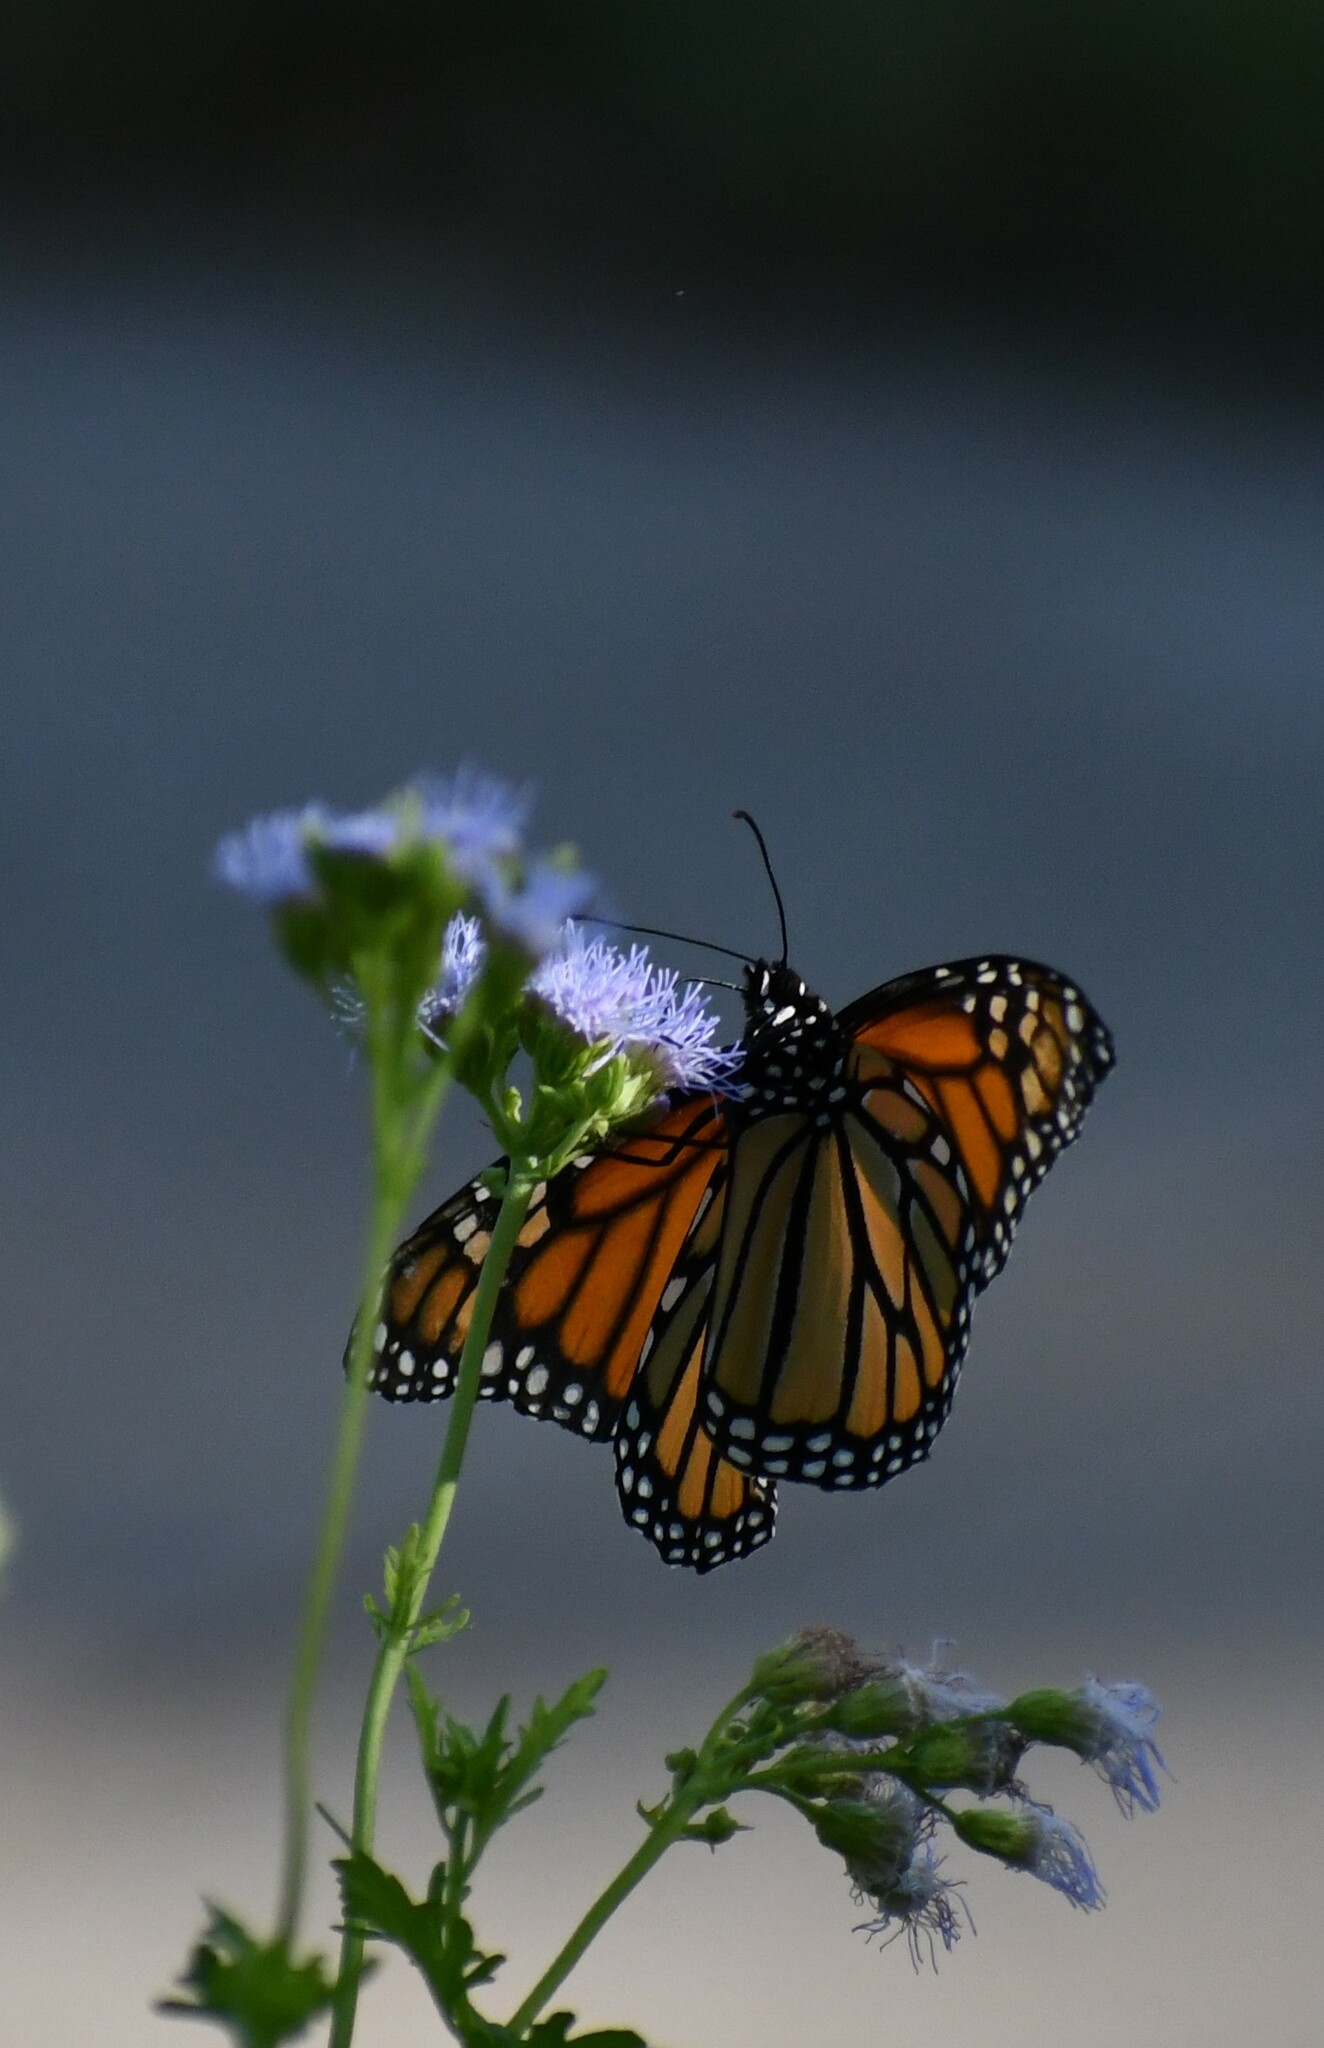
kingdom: Animalia
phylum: Arthropoda
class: Insecta
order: Lepidoptera
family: Nymphalidae
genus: Danaus
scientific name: Danaus plexippus
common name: Monarch
